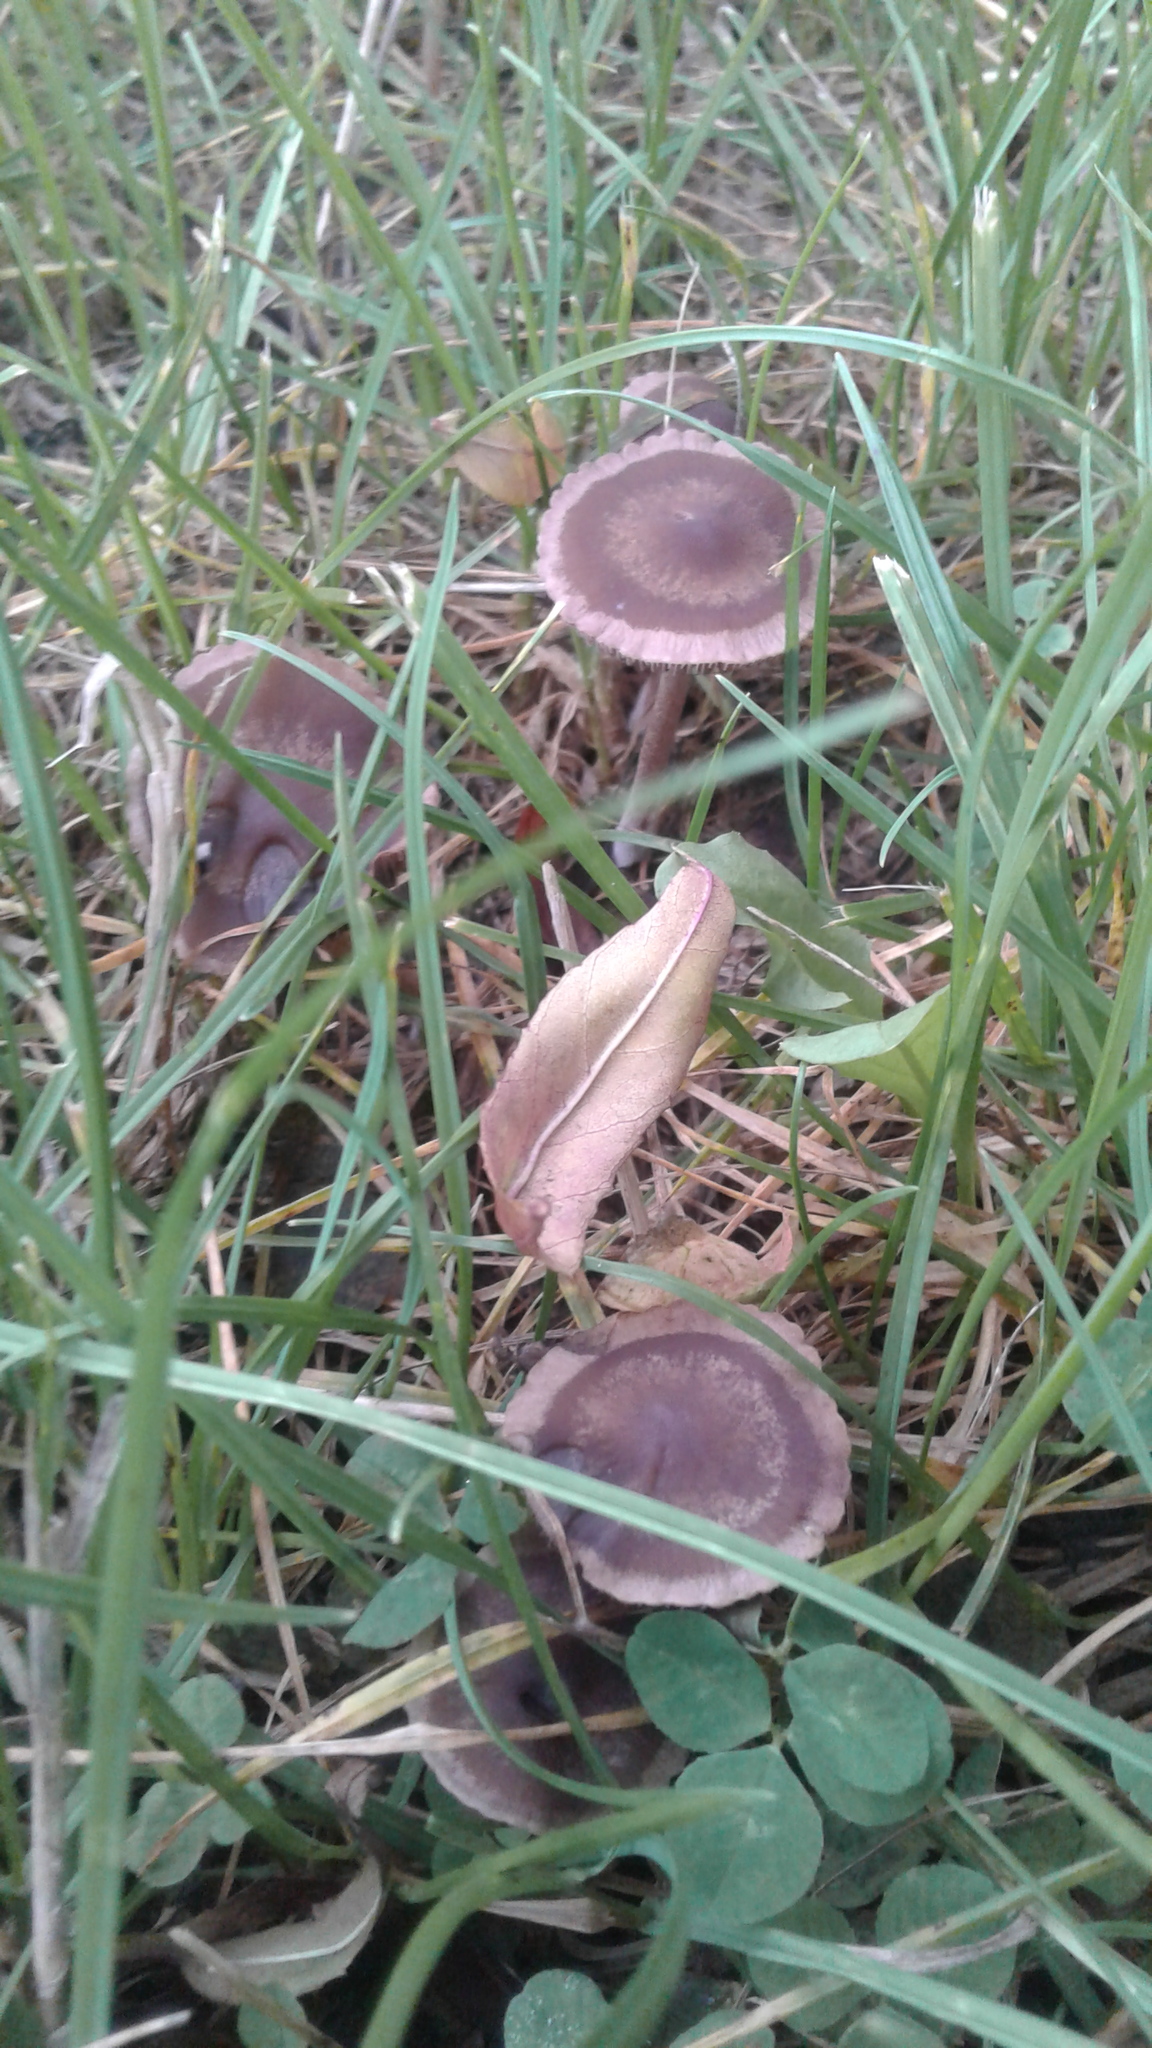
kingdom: Fungi
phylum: Basidiomycota
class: Agaricomycetes
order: Agaricales
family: Bolbitiaceae
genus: Panaeolina
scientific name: Panaeolina foenisecii
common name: Brown hay cap
